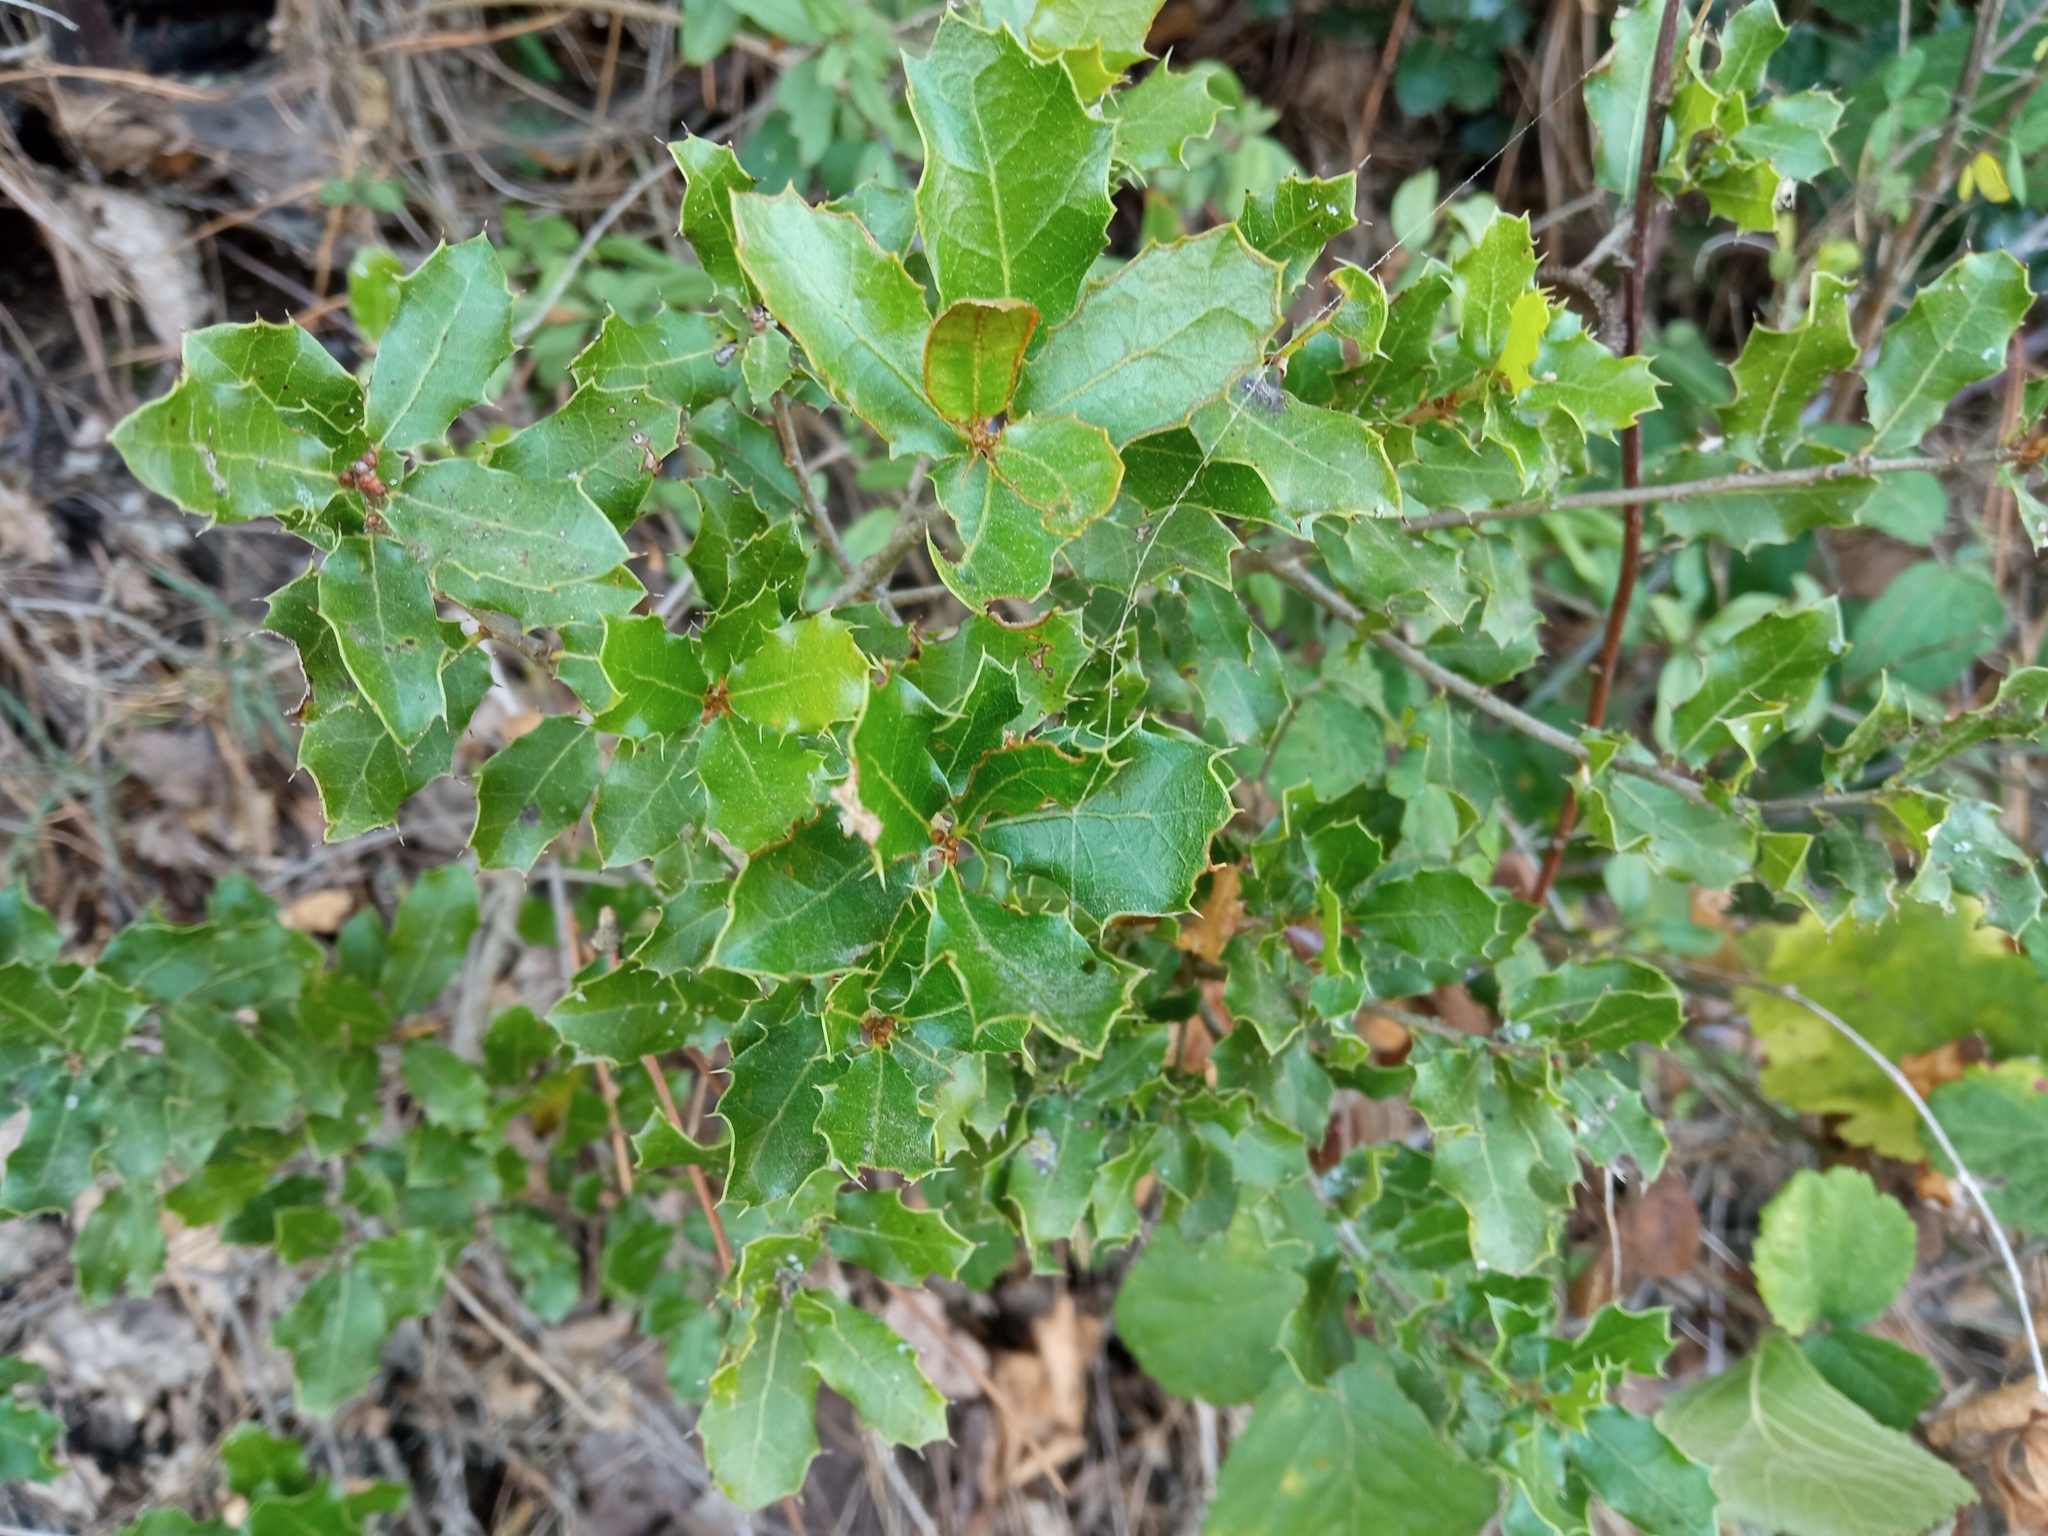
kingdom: Plantae
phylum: Tracheophyta
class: Magnoliopsida
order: Fagales
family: Fagaceae
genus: Quercus
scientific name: Quercus coccifera
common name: Kermes oak
